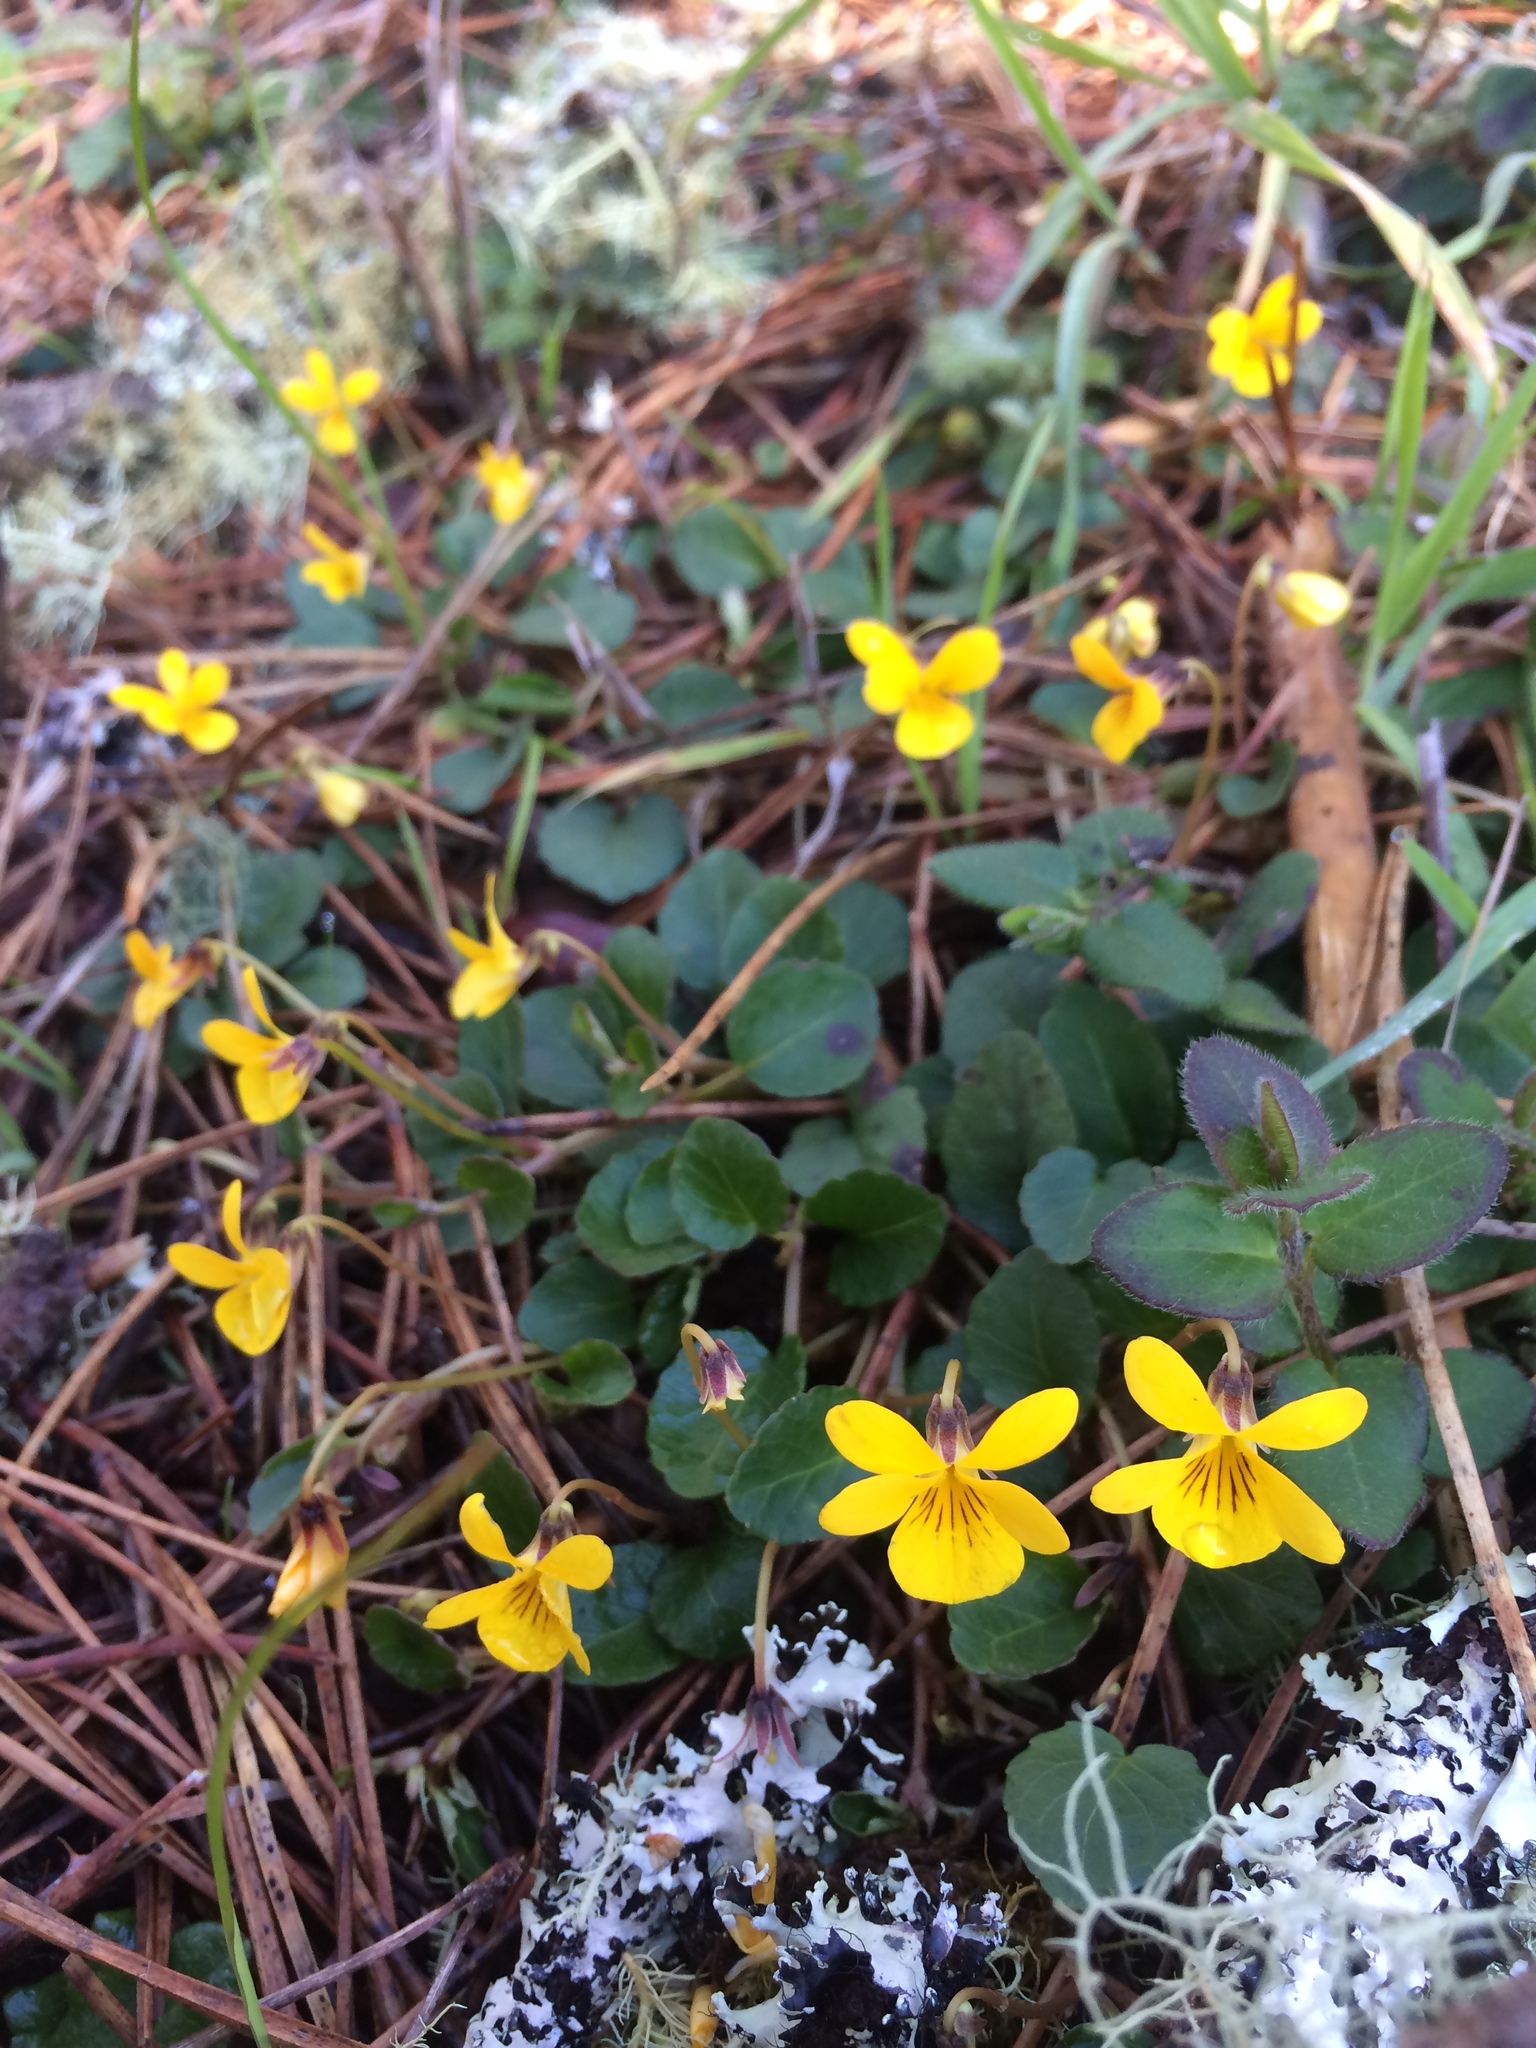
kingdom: Plantae
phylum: Tracheophyta
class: Magnoliopsida
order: Malpighiales
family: Violaceae
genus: Viola
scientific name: Viola sempervirens
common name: Evergreen violet
